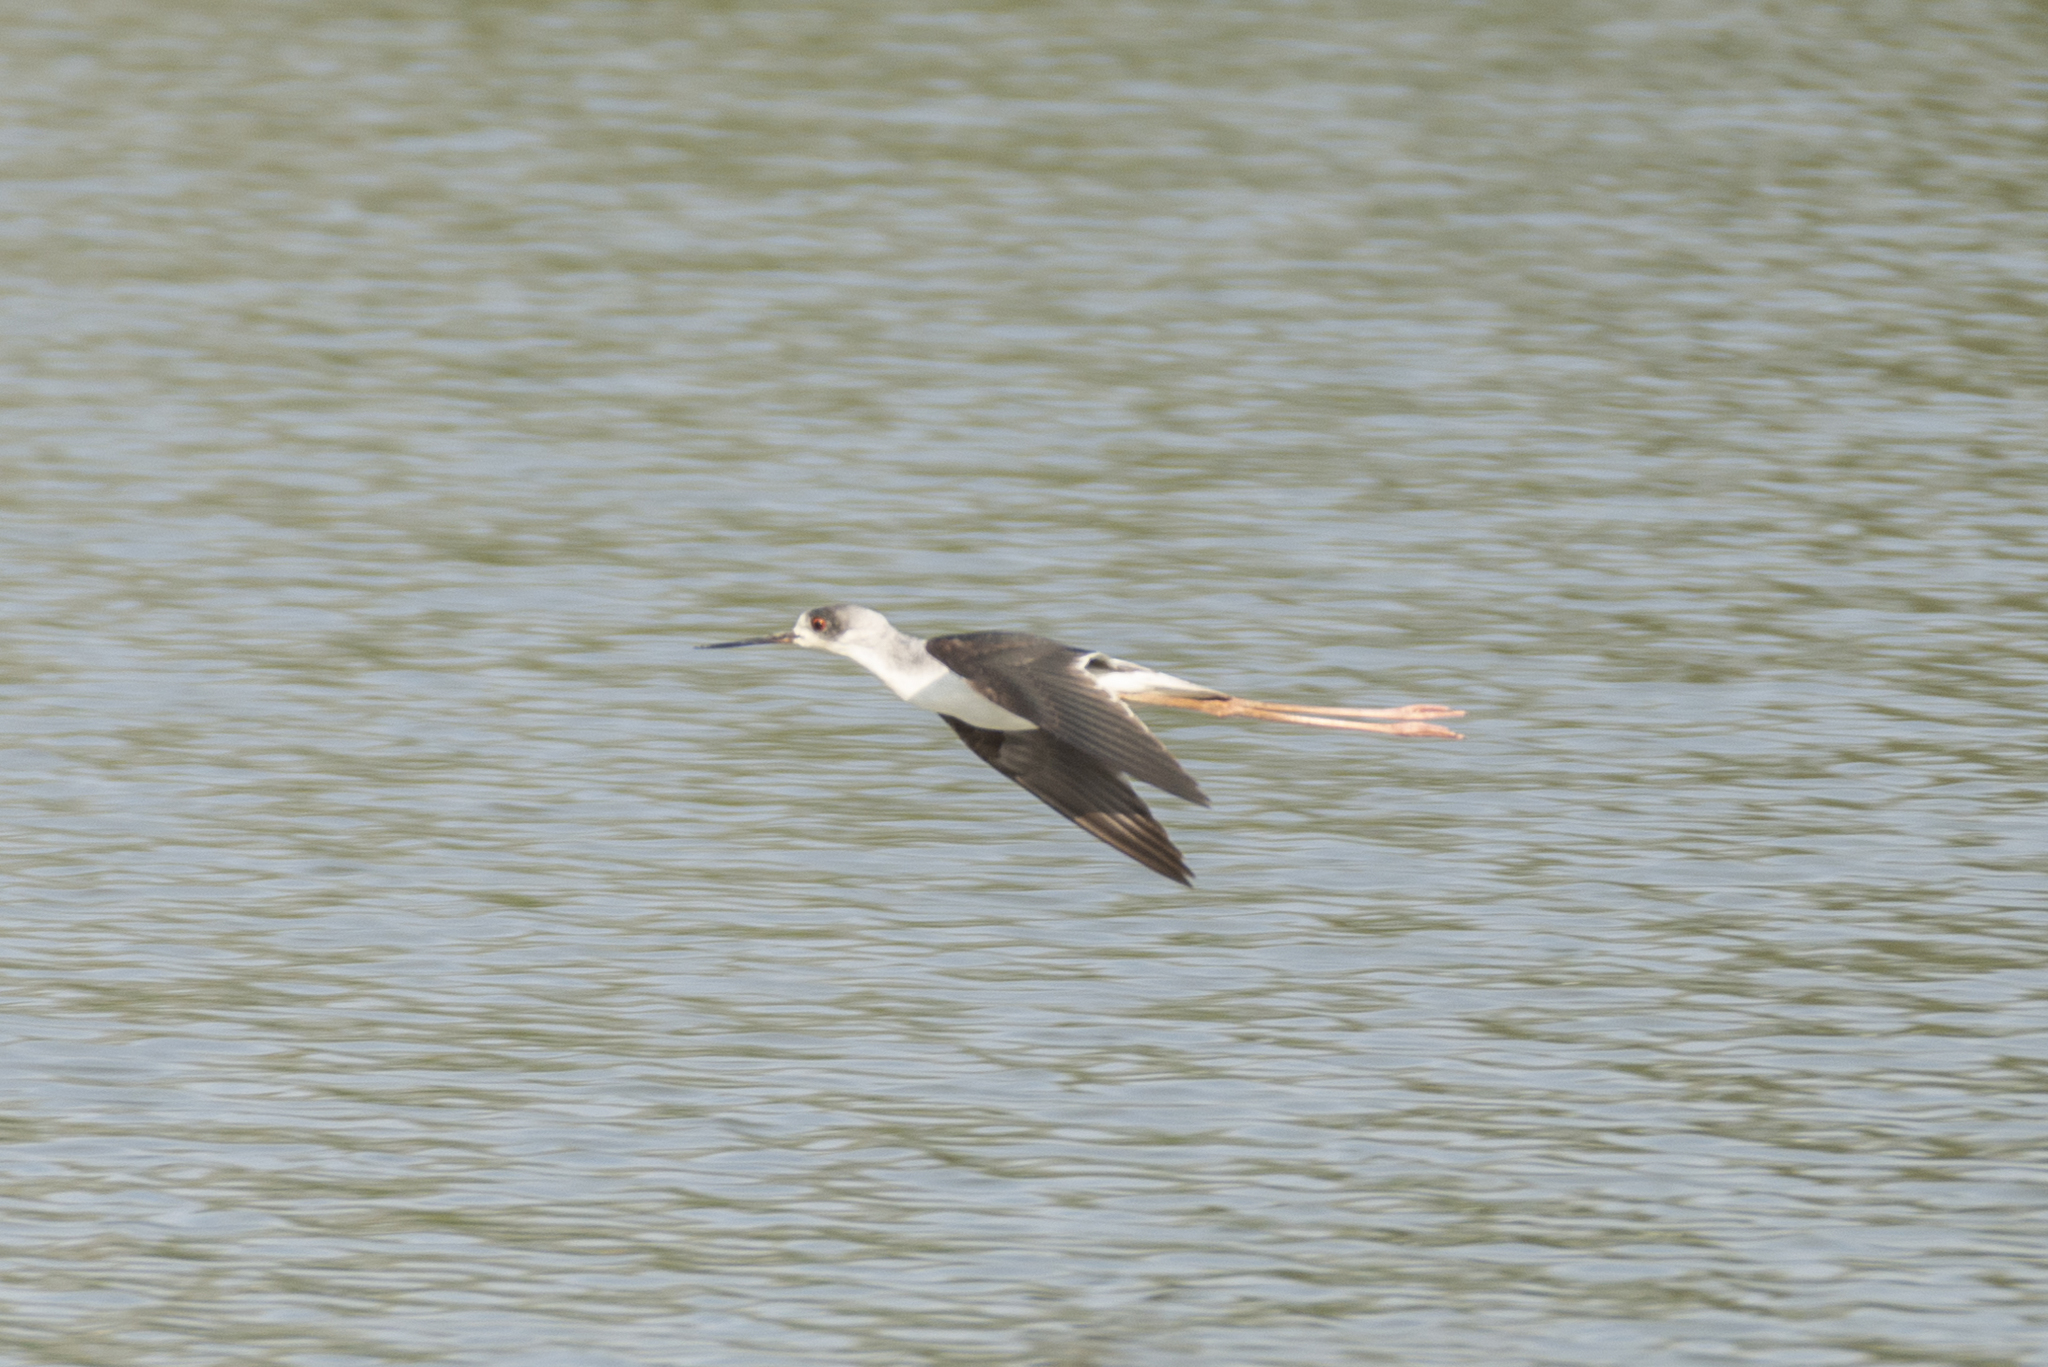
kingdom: Animalia
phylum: Chordata
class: Aves
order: Charadriiformes
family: Recurvirostridae
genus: Himantopus
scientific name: Himantopus himantopus
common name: Black-winged stilt
